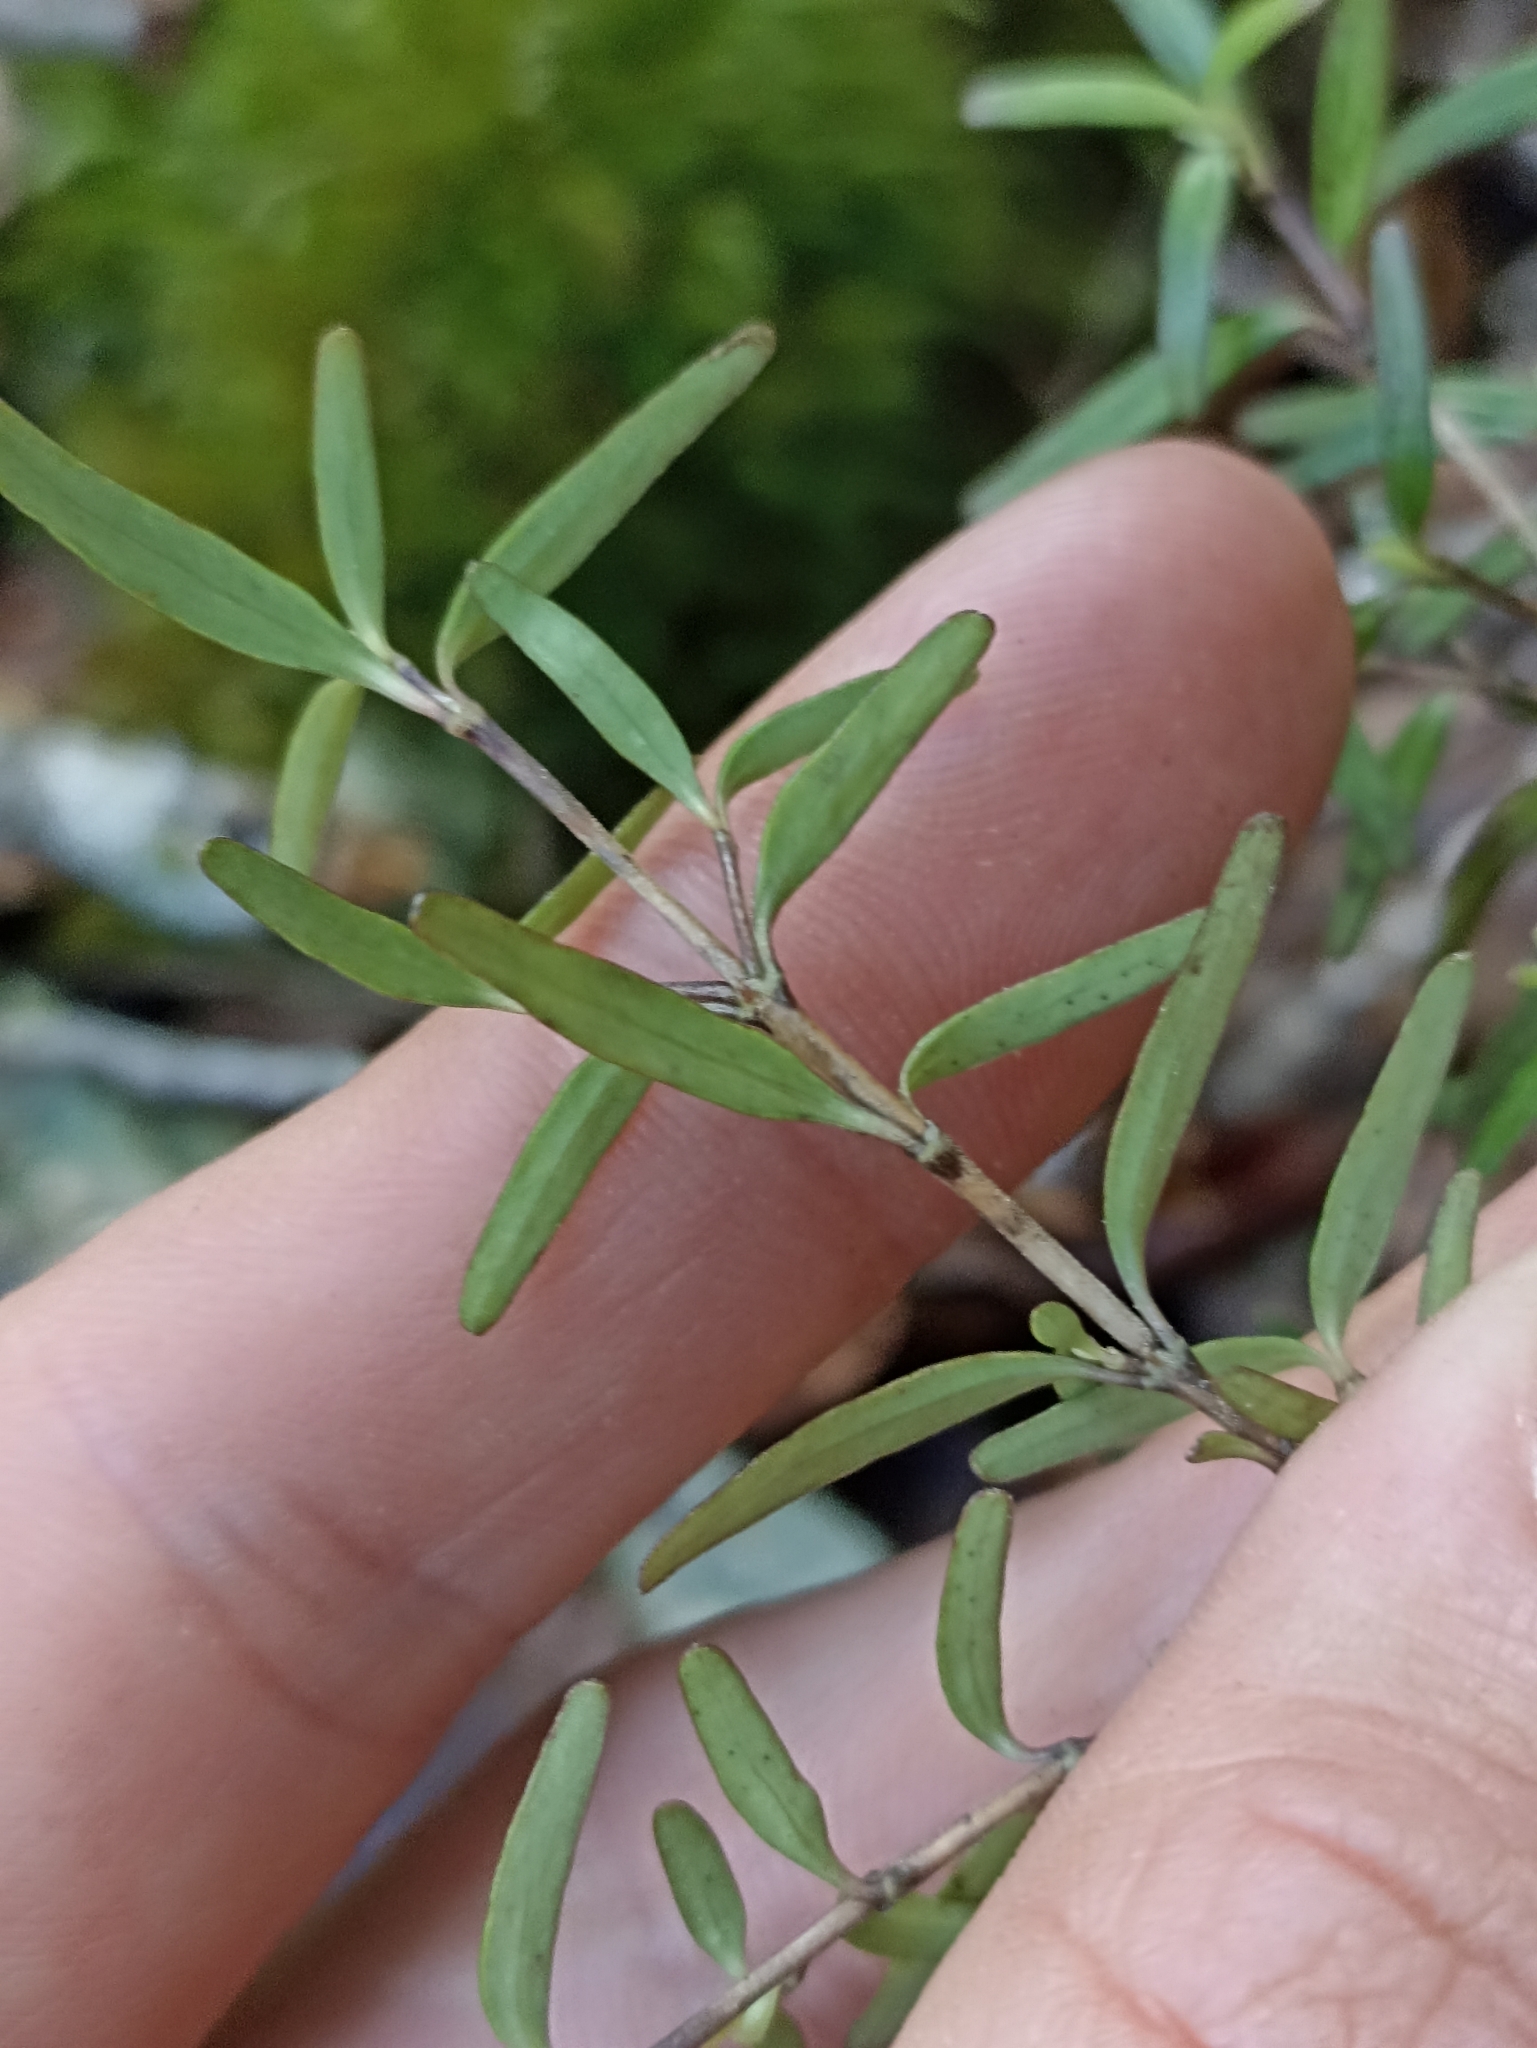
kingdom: Plantae
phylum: Tracheophyta
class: Magnoliopsida
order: Gentianales
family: Rubiaceae
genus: Coprosma
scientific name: Coprosma colensoi
